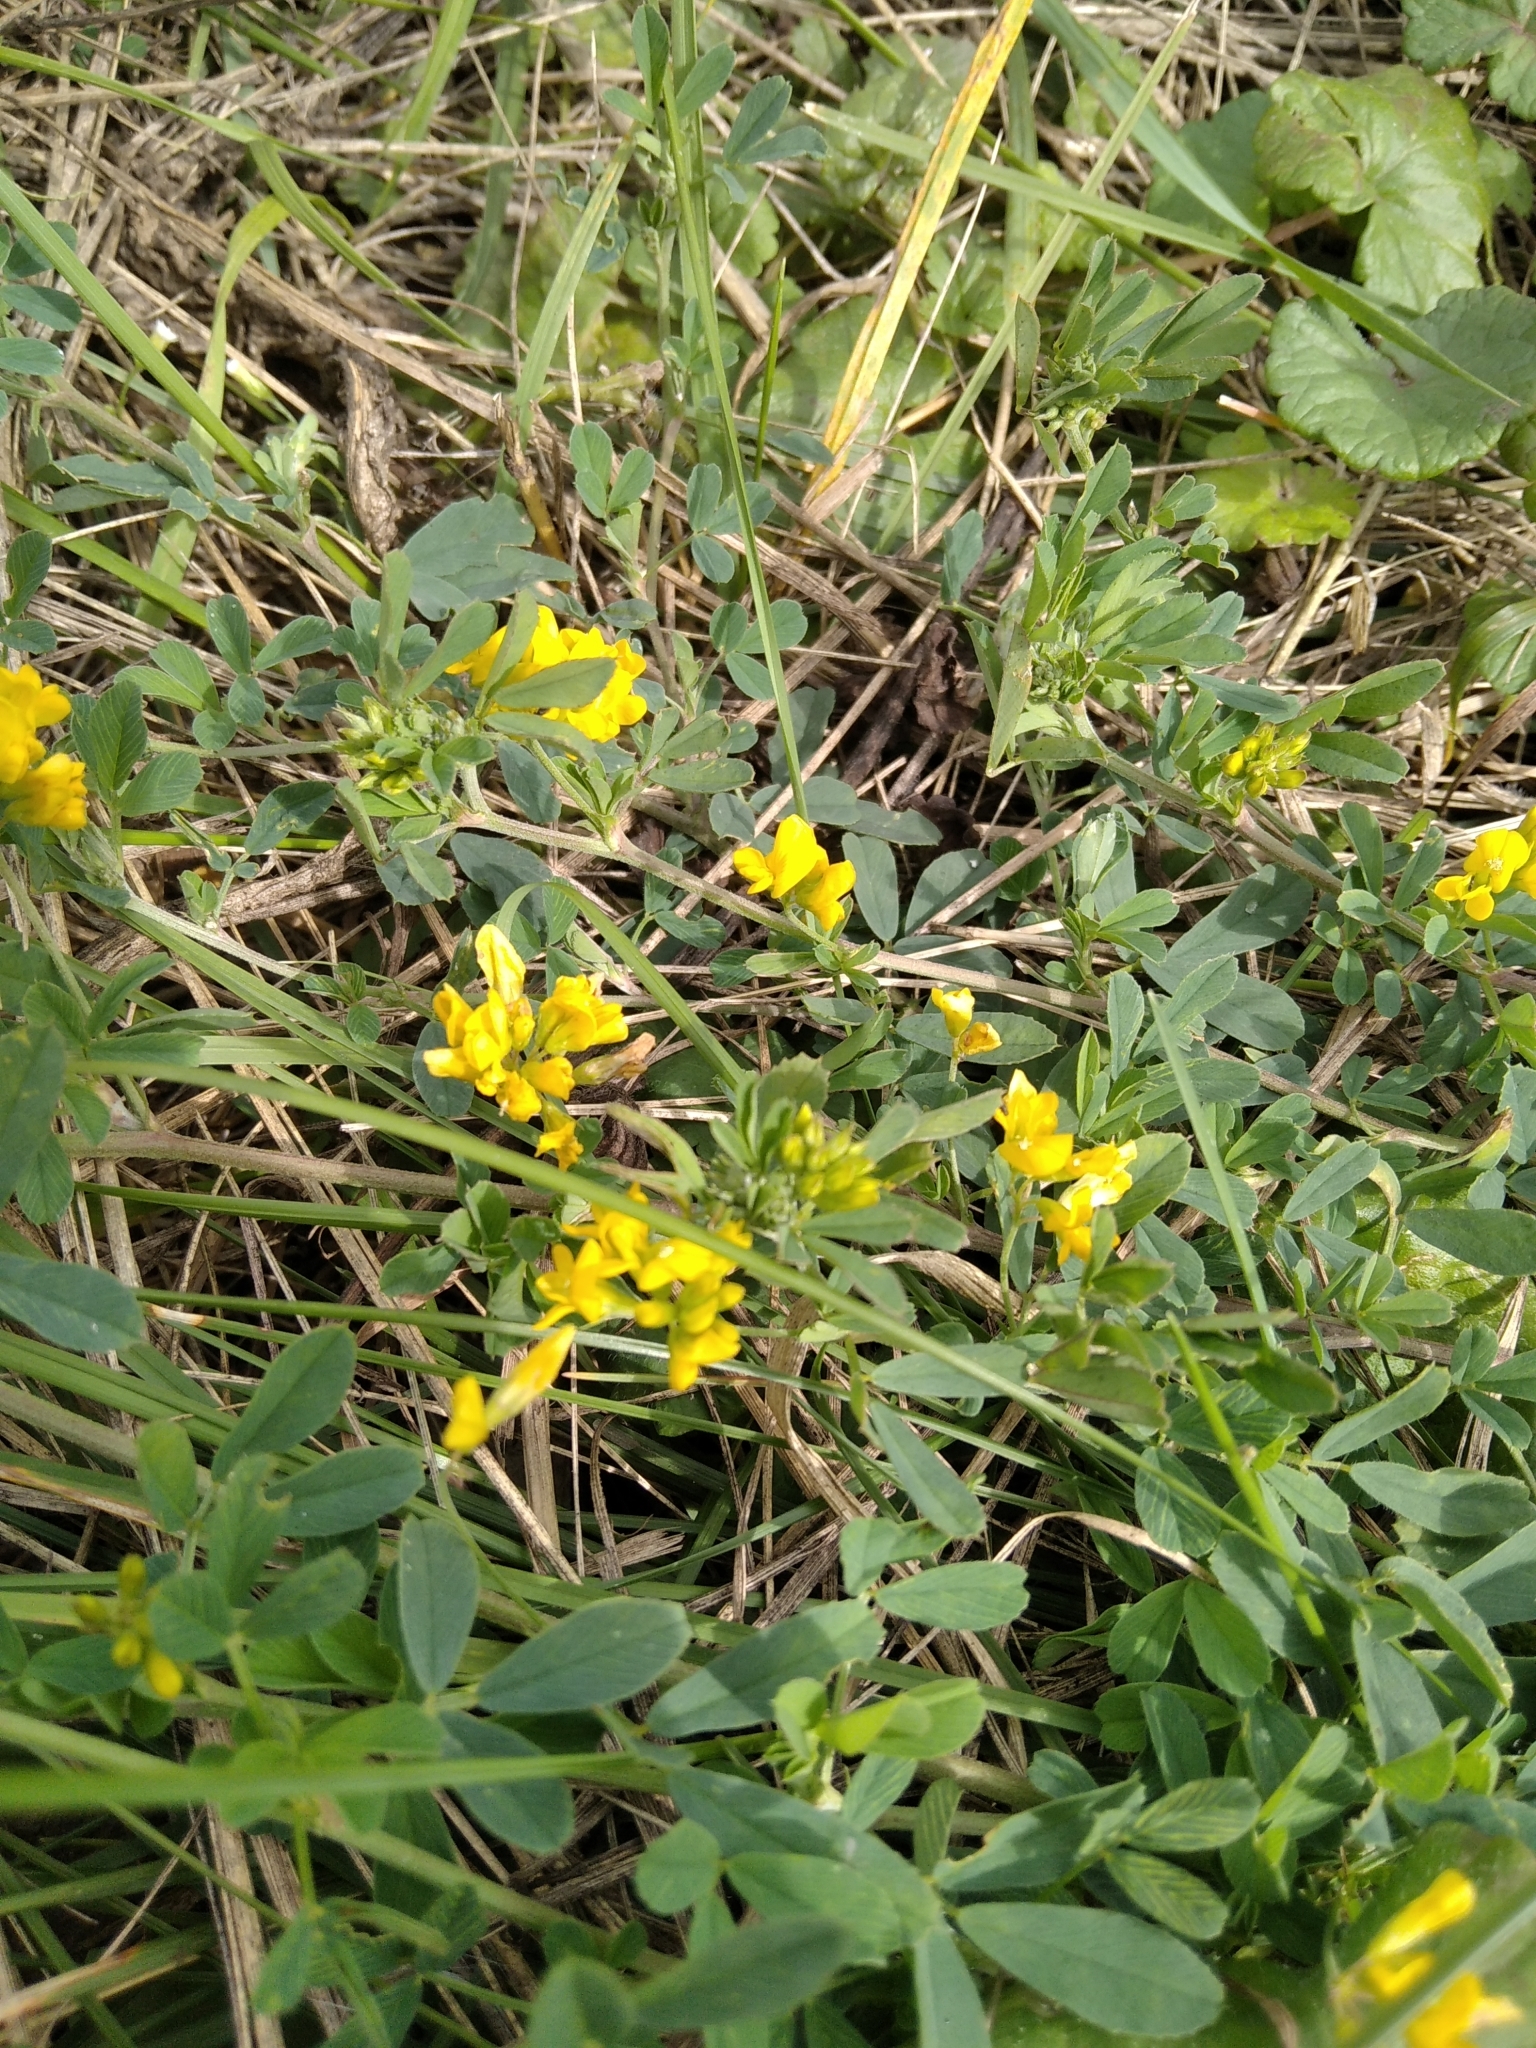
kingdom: Plantae
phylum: Tracheophyta
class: Magnoliopsida
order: Fabales
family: Fabaceae
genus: Medicago
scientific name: Medicago falcata
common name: Sickle medick
